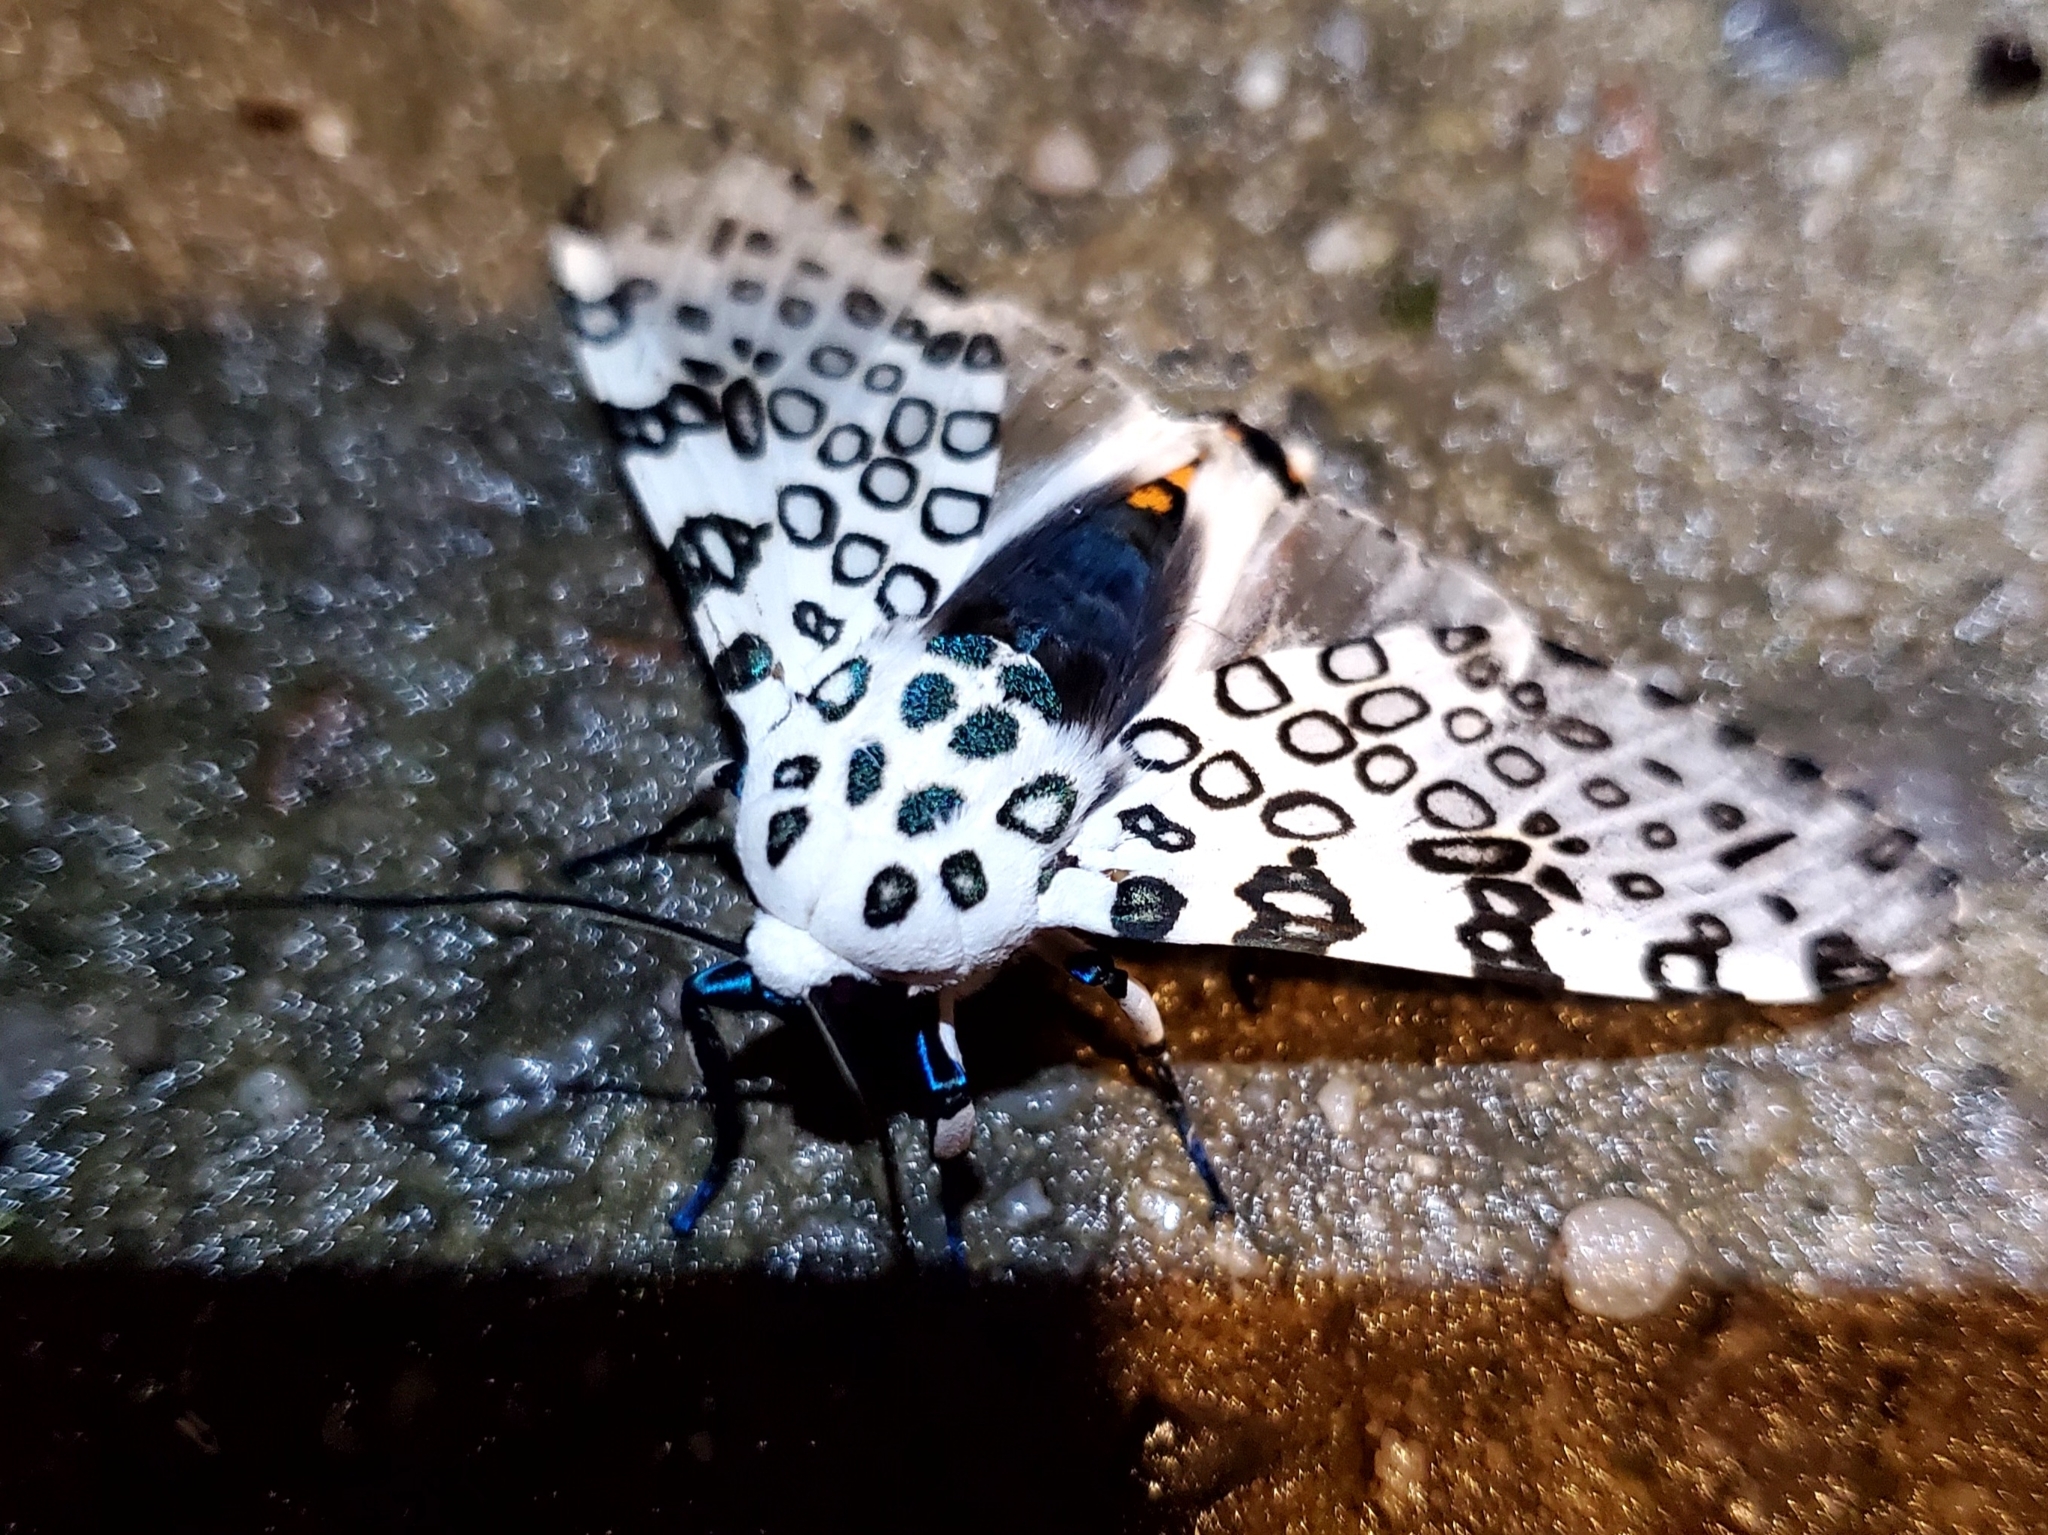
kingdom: Animalia
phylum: Arthropoda
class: Insecta
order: Lepidoptera
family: Erebidae
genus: Hypercompe
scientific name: Hypercompe scribonia
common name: Giant leopard moth
